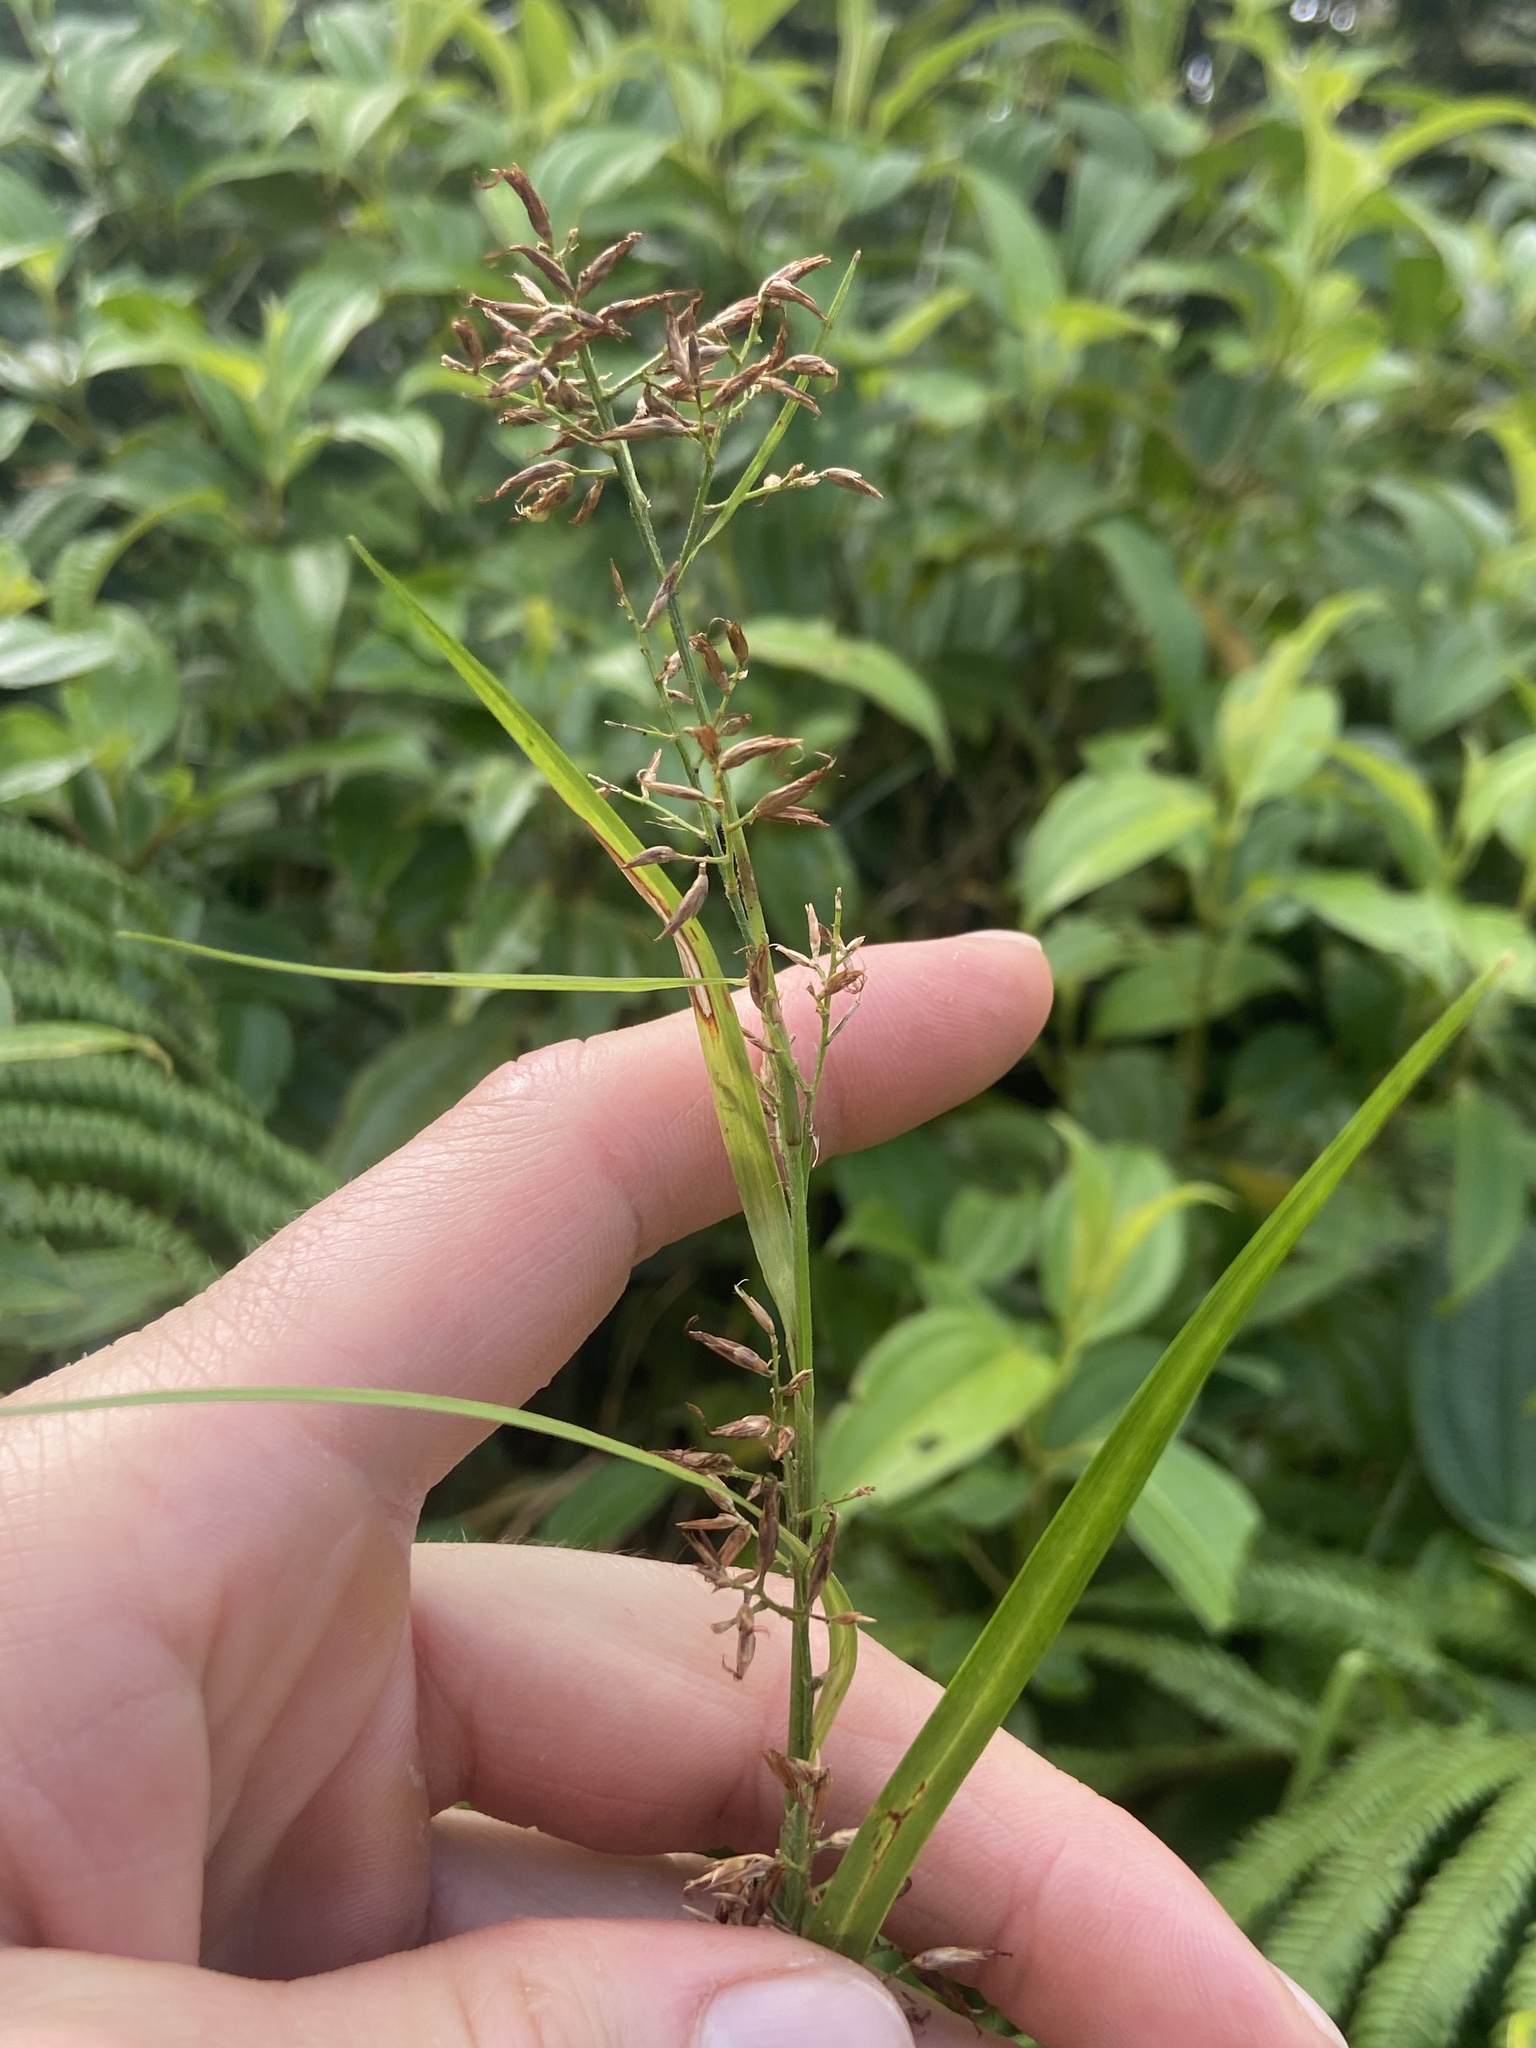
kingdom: Plantae
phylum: Tracheophyta
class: Liliopsida
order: Poales
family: Cyperaceae
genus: Rhynchospora
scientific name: Rhynchospora jamaicensis
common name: Jamaican beaksedge
